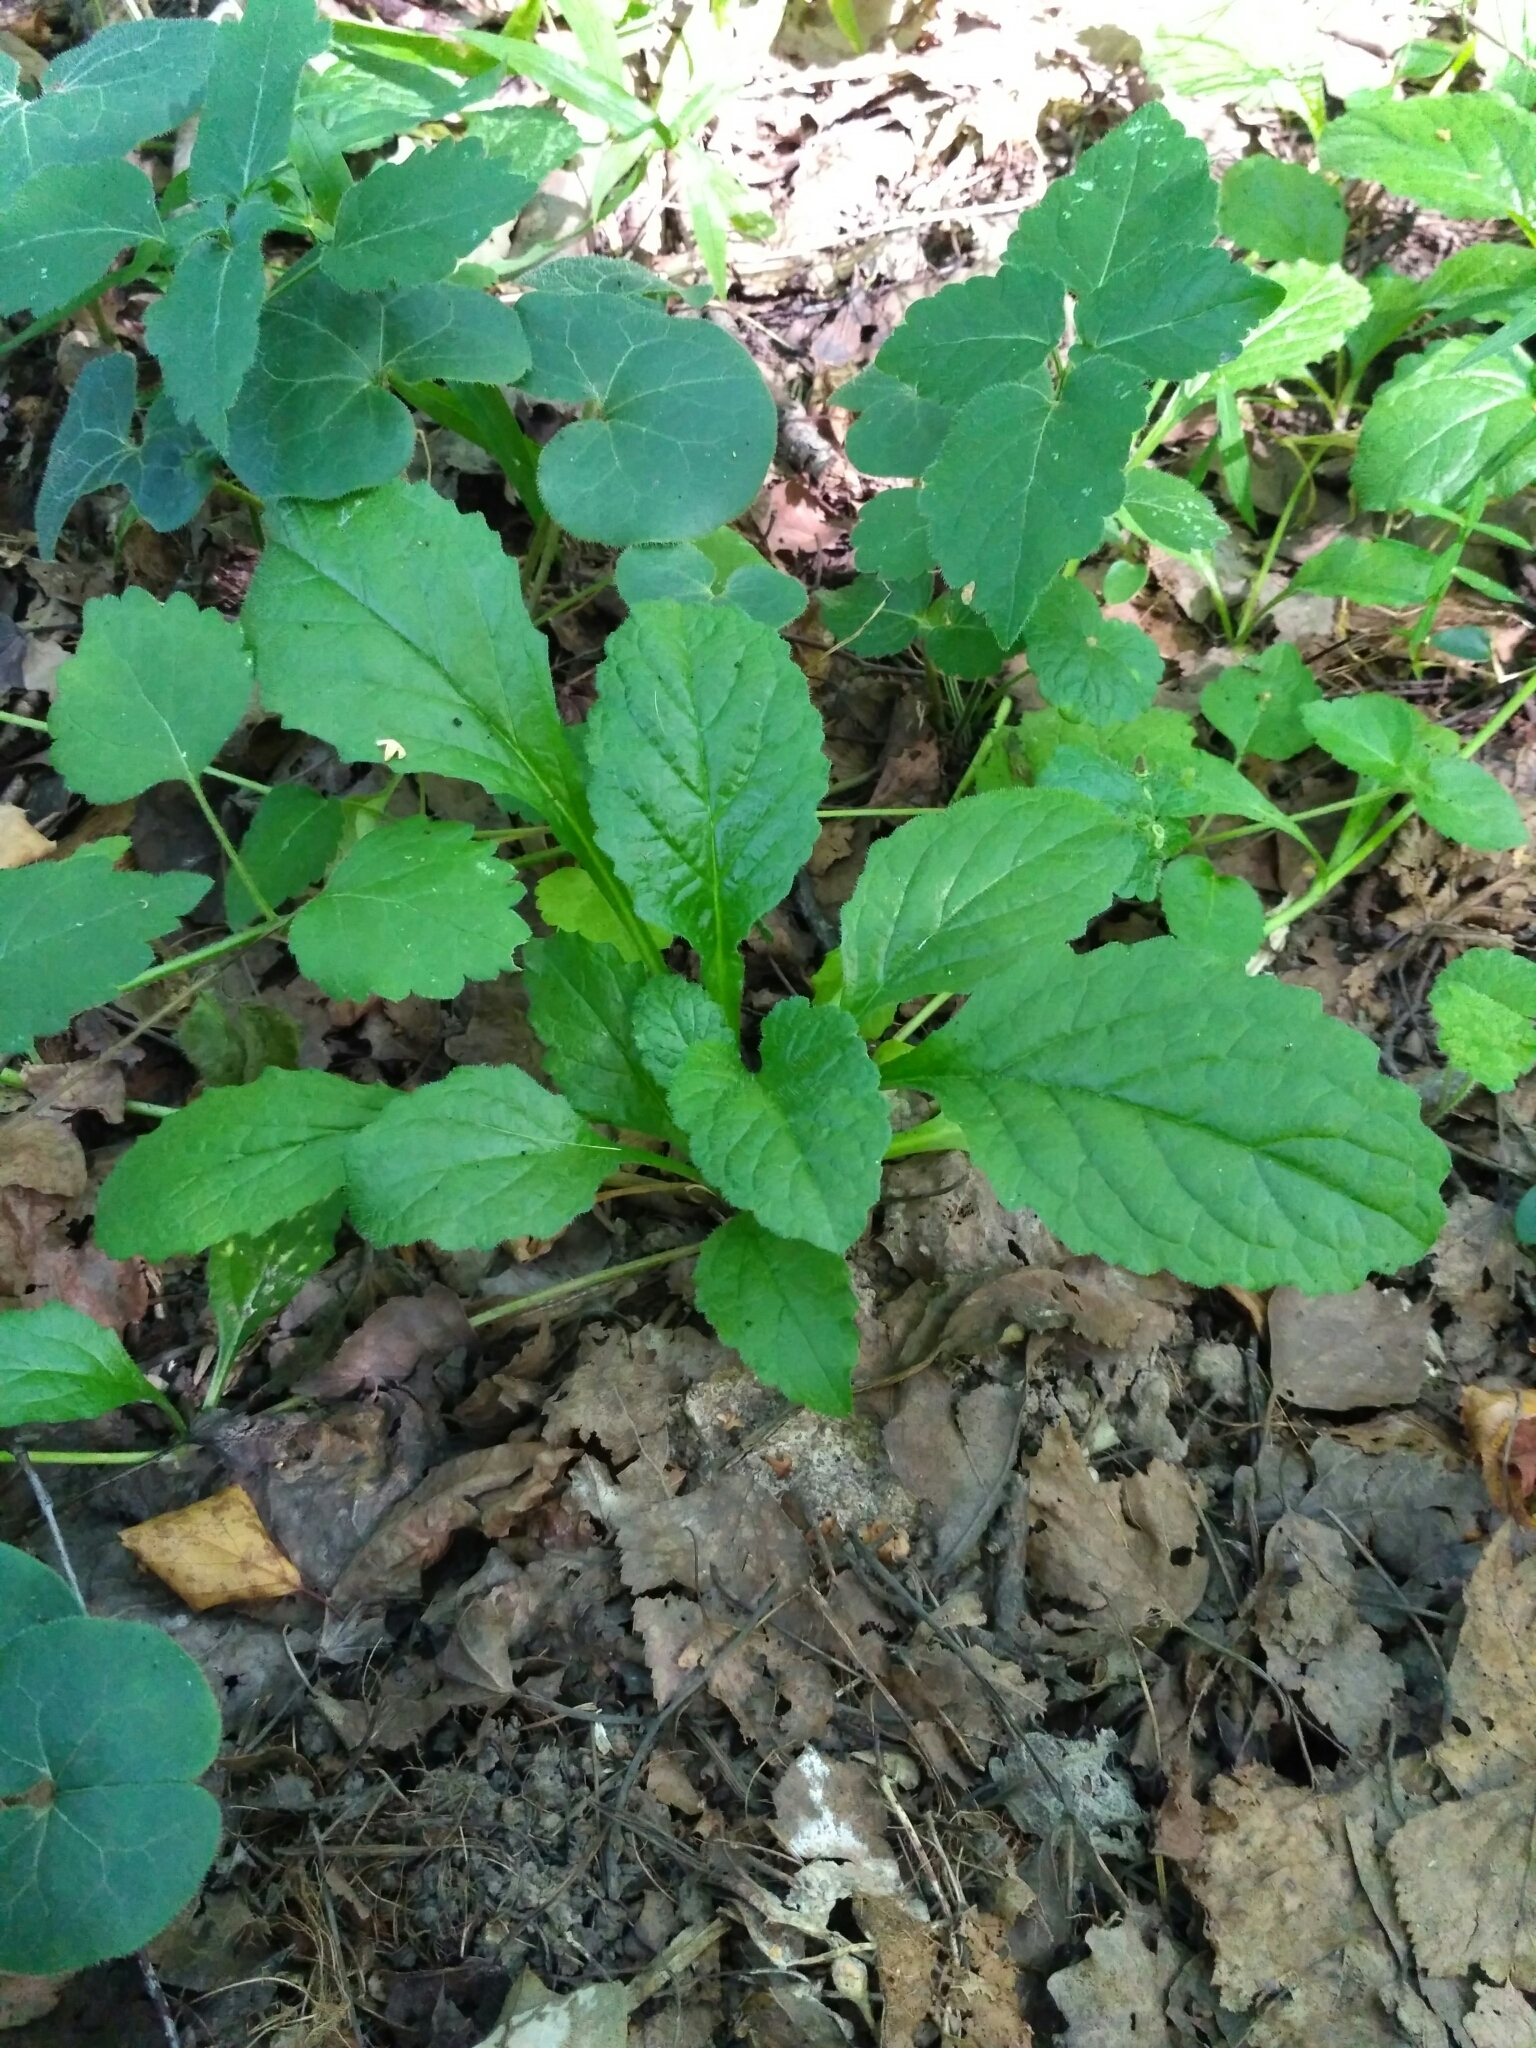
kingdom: Plantae
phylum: Tracheophyta
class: Magnoliopsida
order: Lamiales
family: Lamiaceae
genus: Ajuga
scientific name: Ajuga reptans
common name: Bugle
